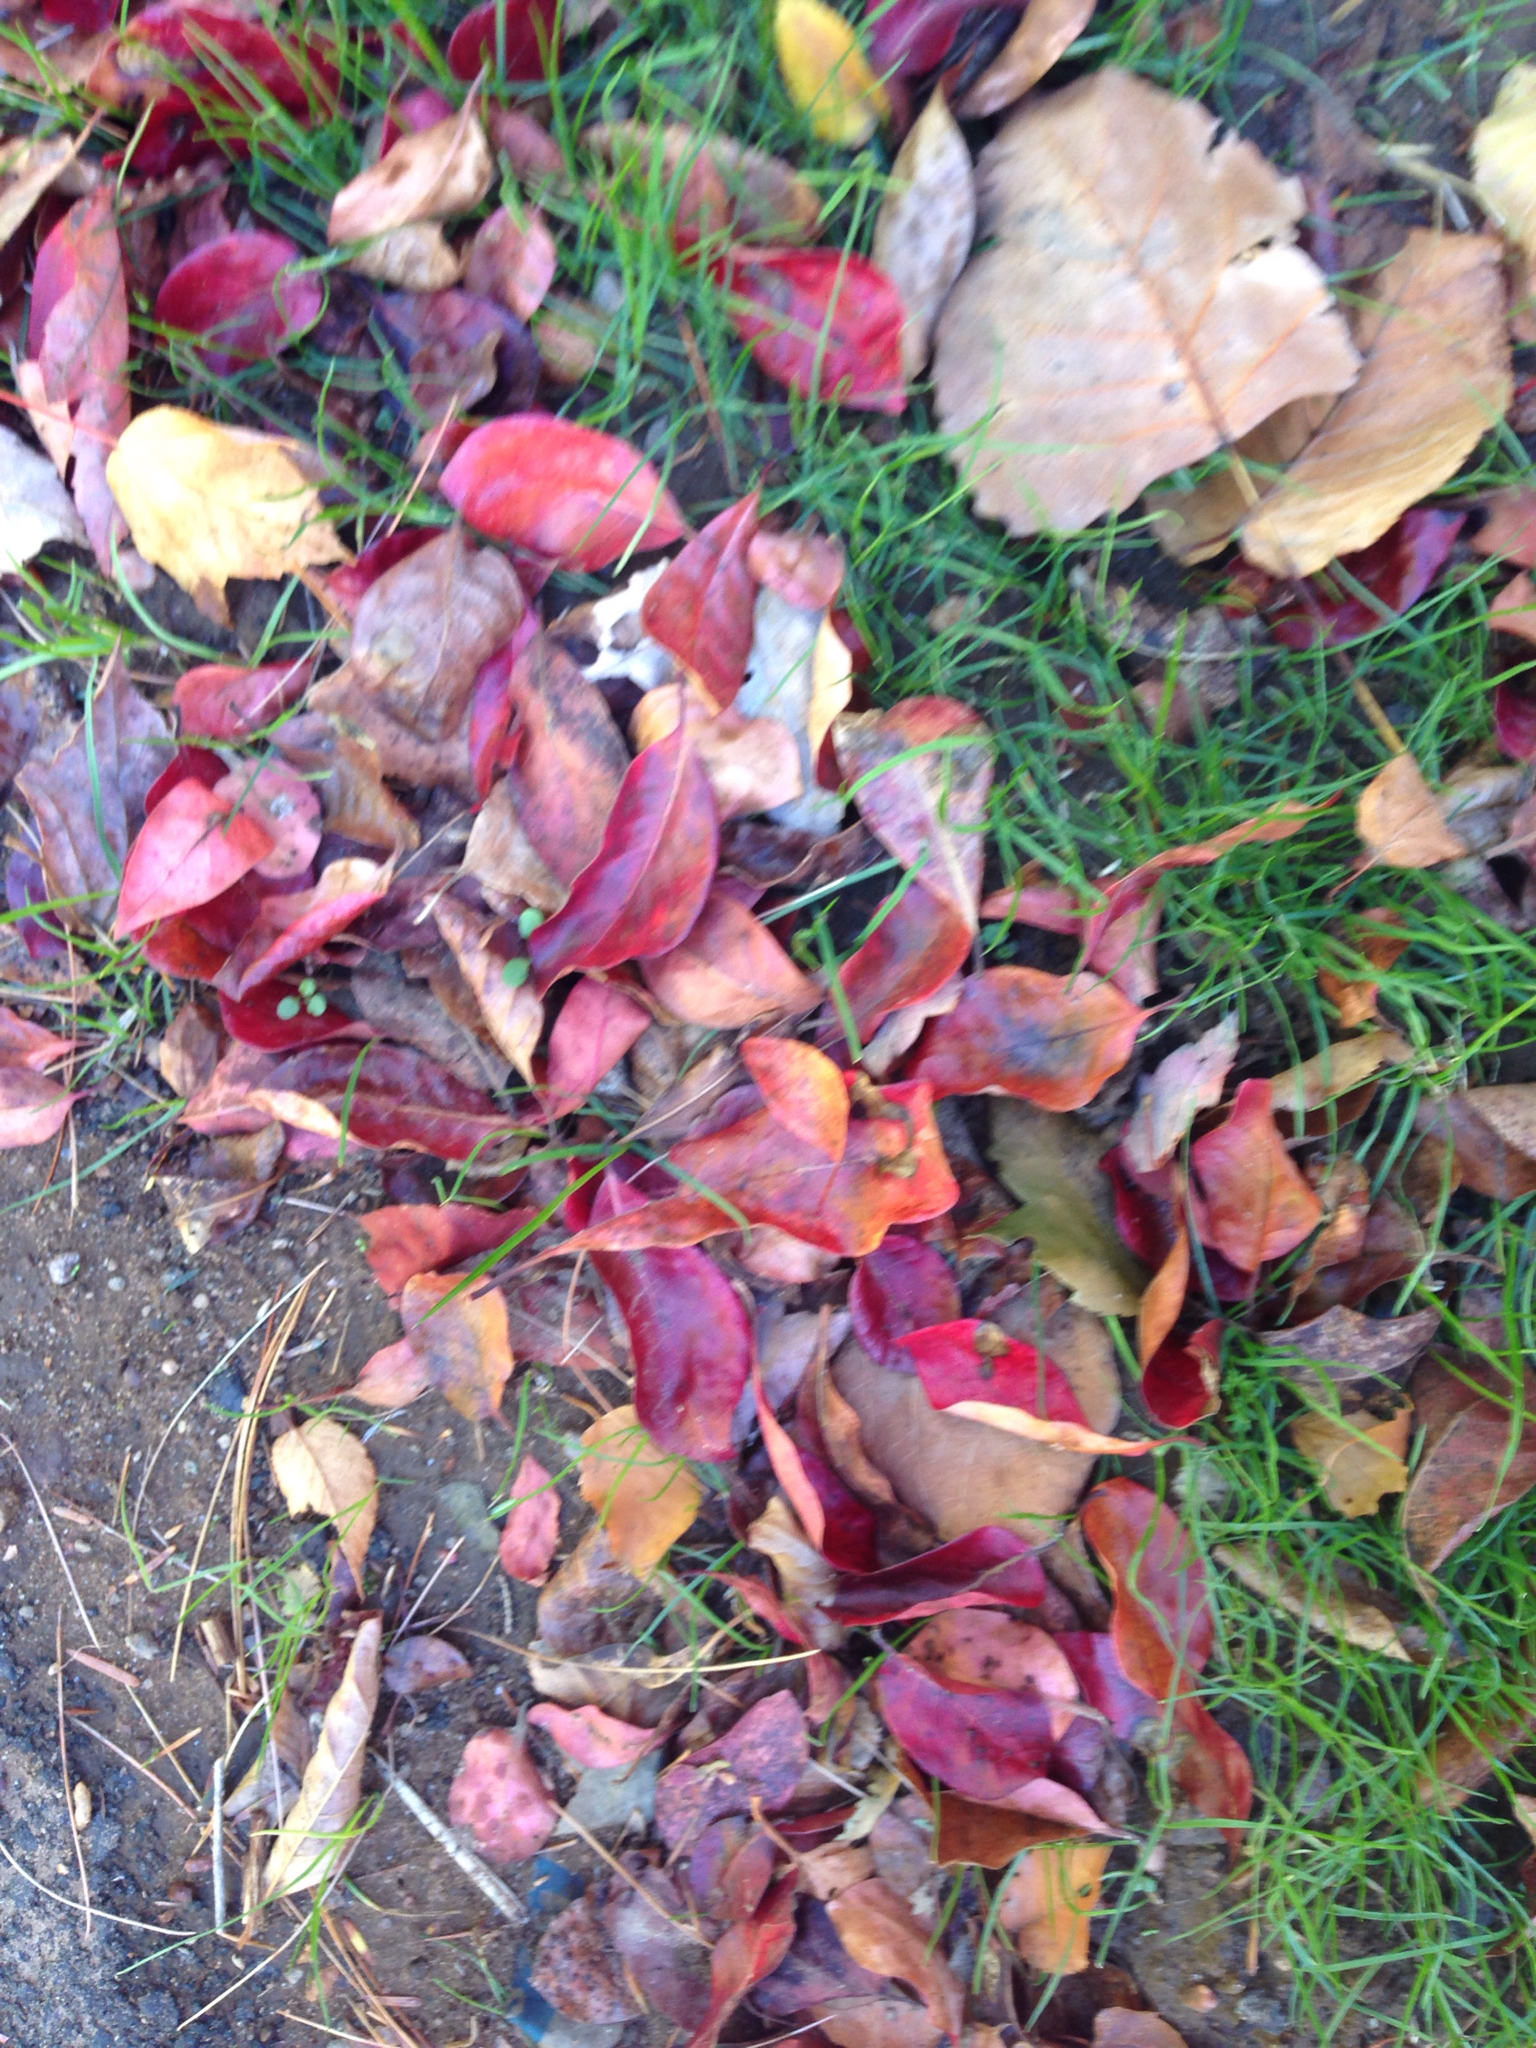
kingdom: Plantae
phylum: Tracheophyta
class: Magnoliopsida
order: Cornales
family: Nyssaceae
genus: Nyssa
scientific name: Nyssa sylvatica
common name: Black tupelo
